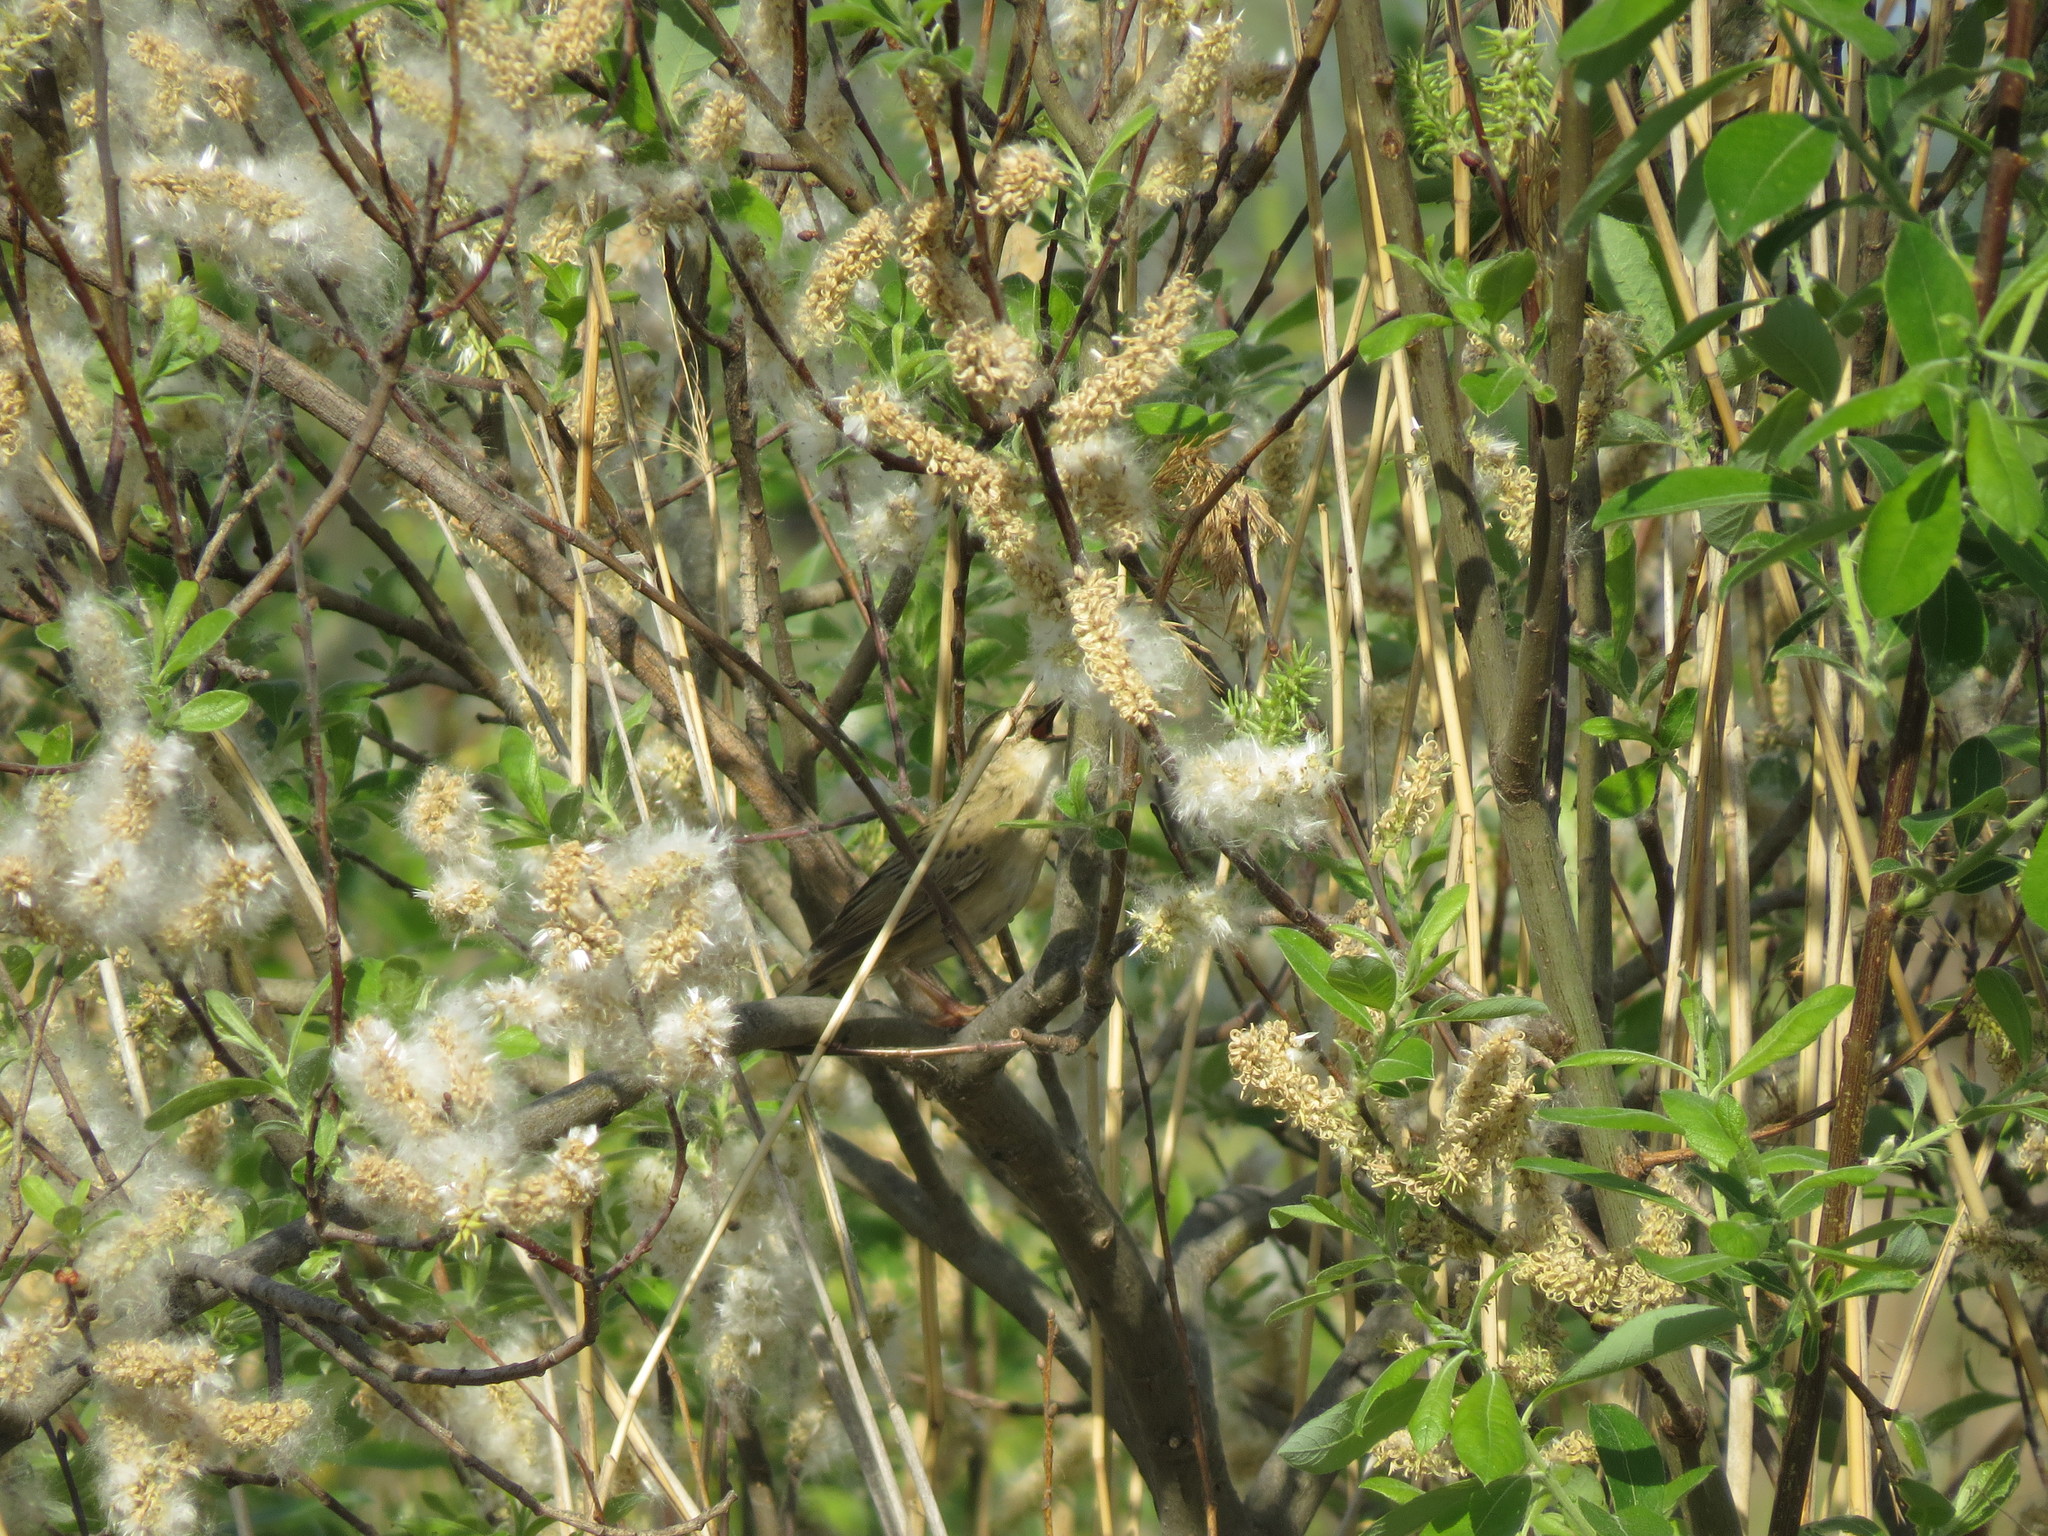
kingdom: Animalia
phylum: Chordata
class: Aves
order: Passeriformes
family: Locustellidae
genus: Locustella
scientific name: Locustella naevia
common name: Common grasshopper warbler
